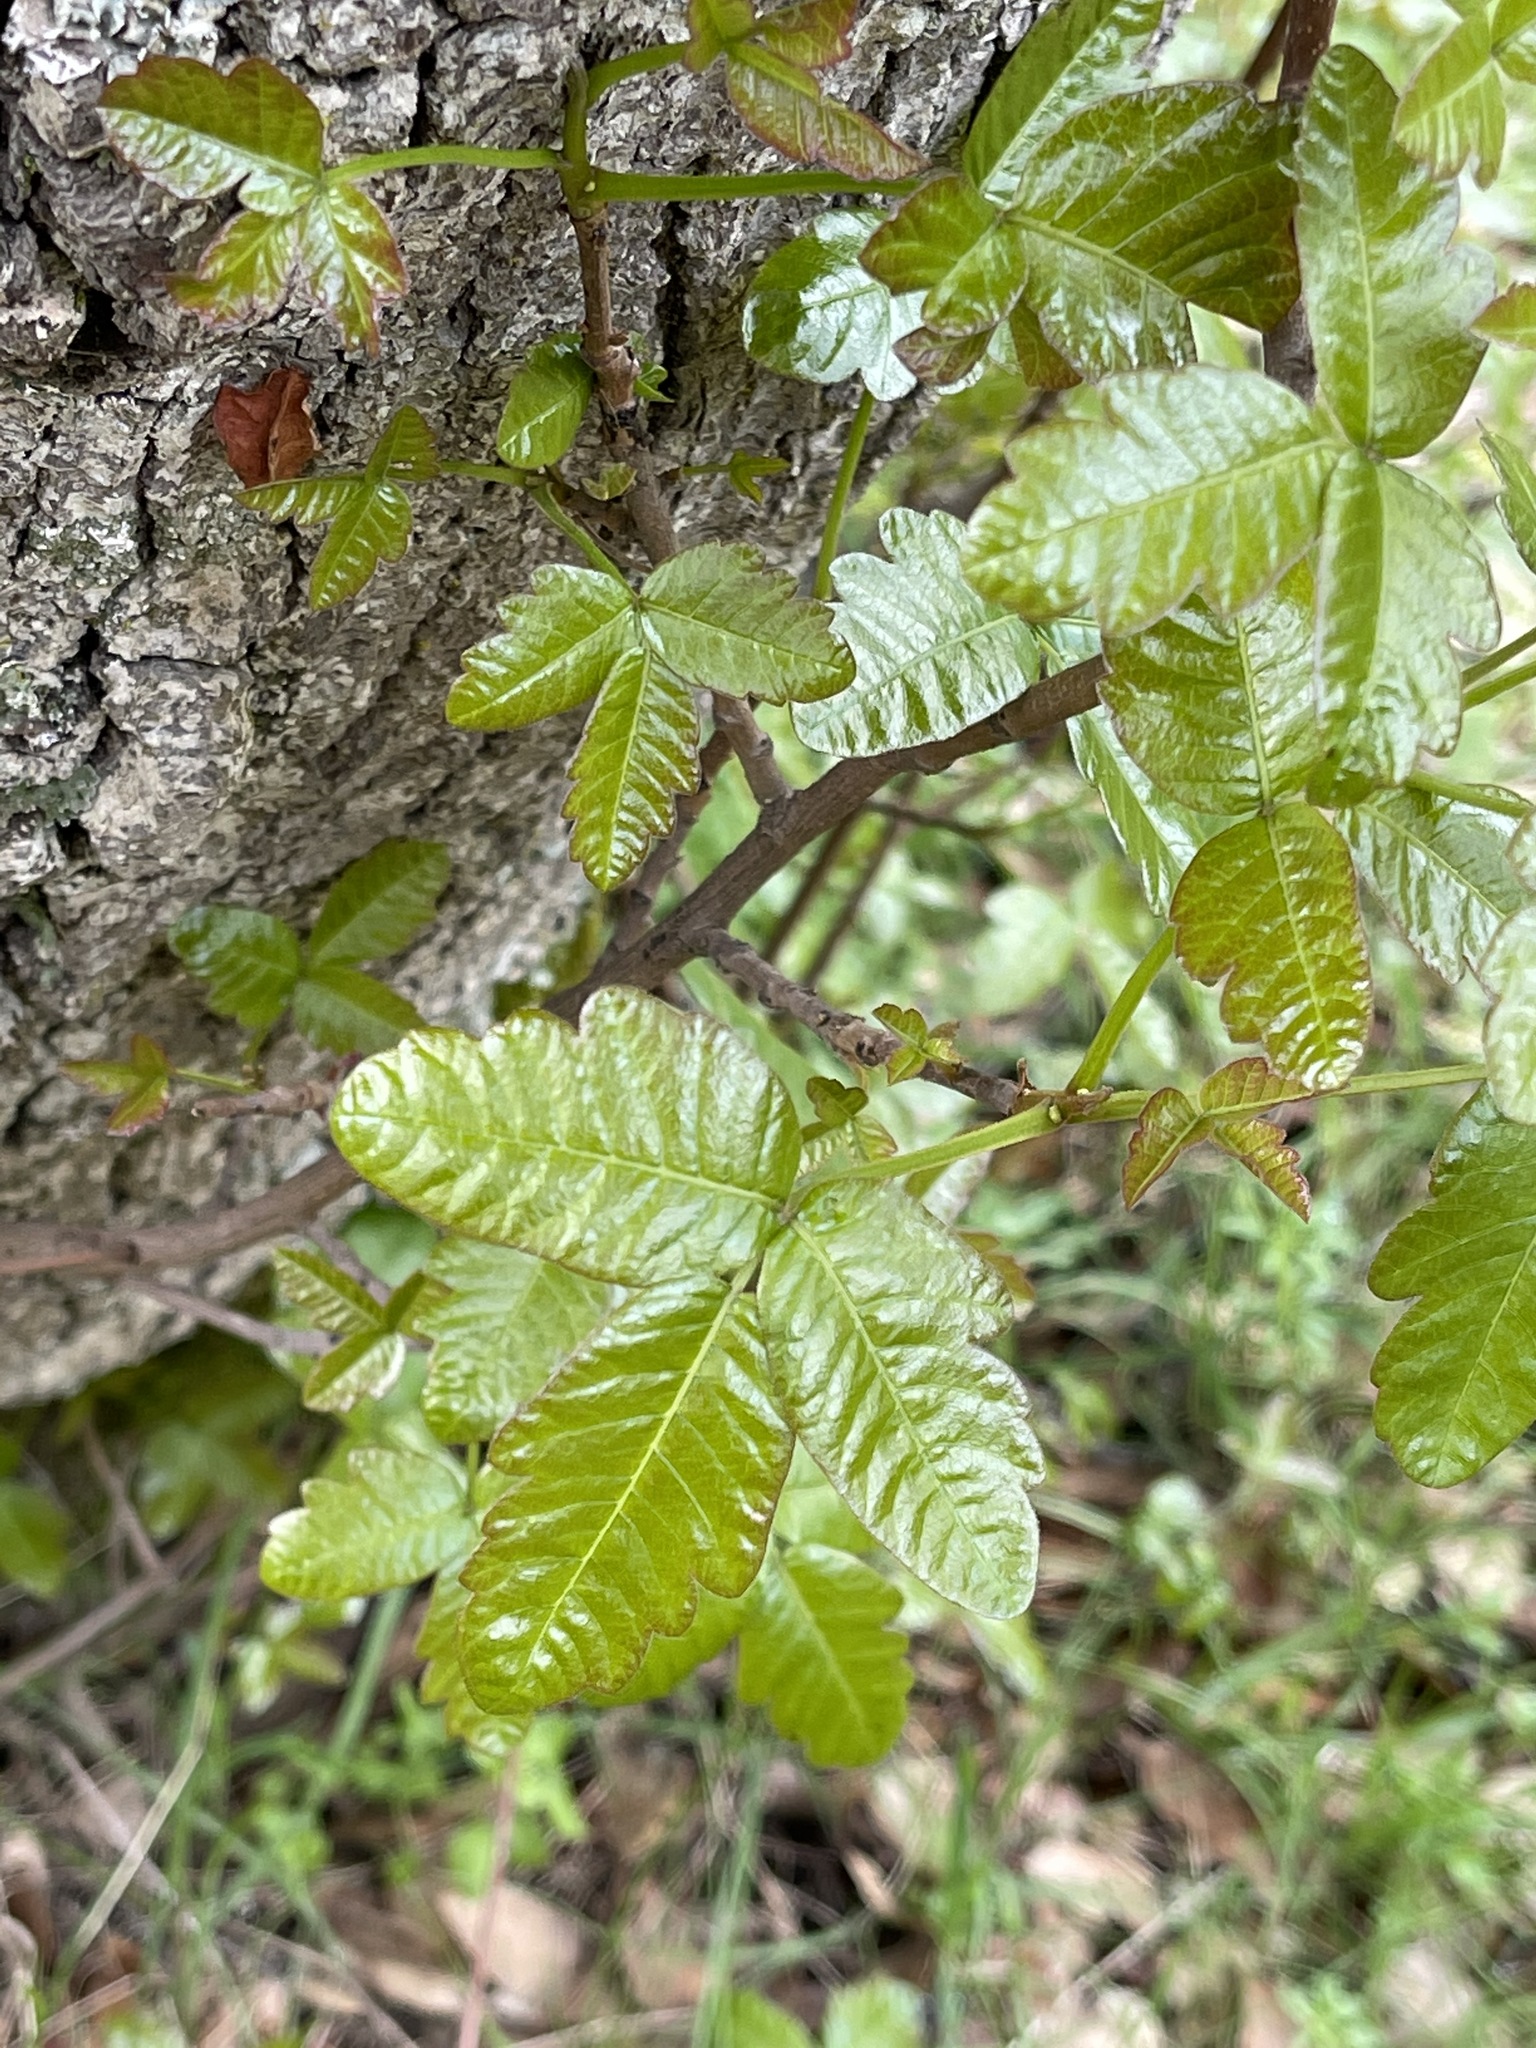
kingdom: Plantae
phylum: Tracheophyta
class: Magnoliopsida
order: Sapindales
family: Anacardiaceae
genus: Toxicodendron
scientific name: Toxicodendron diversilobum
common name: Pacific poison-oak
